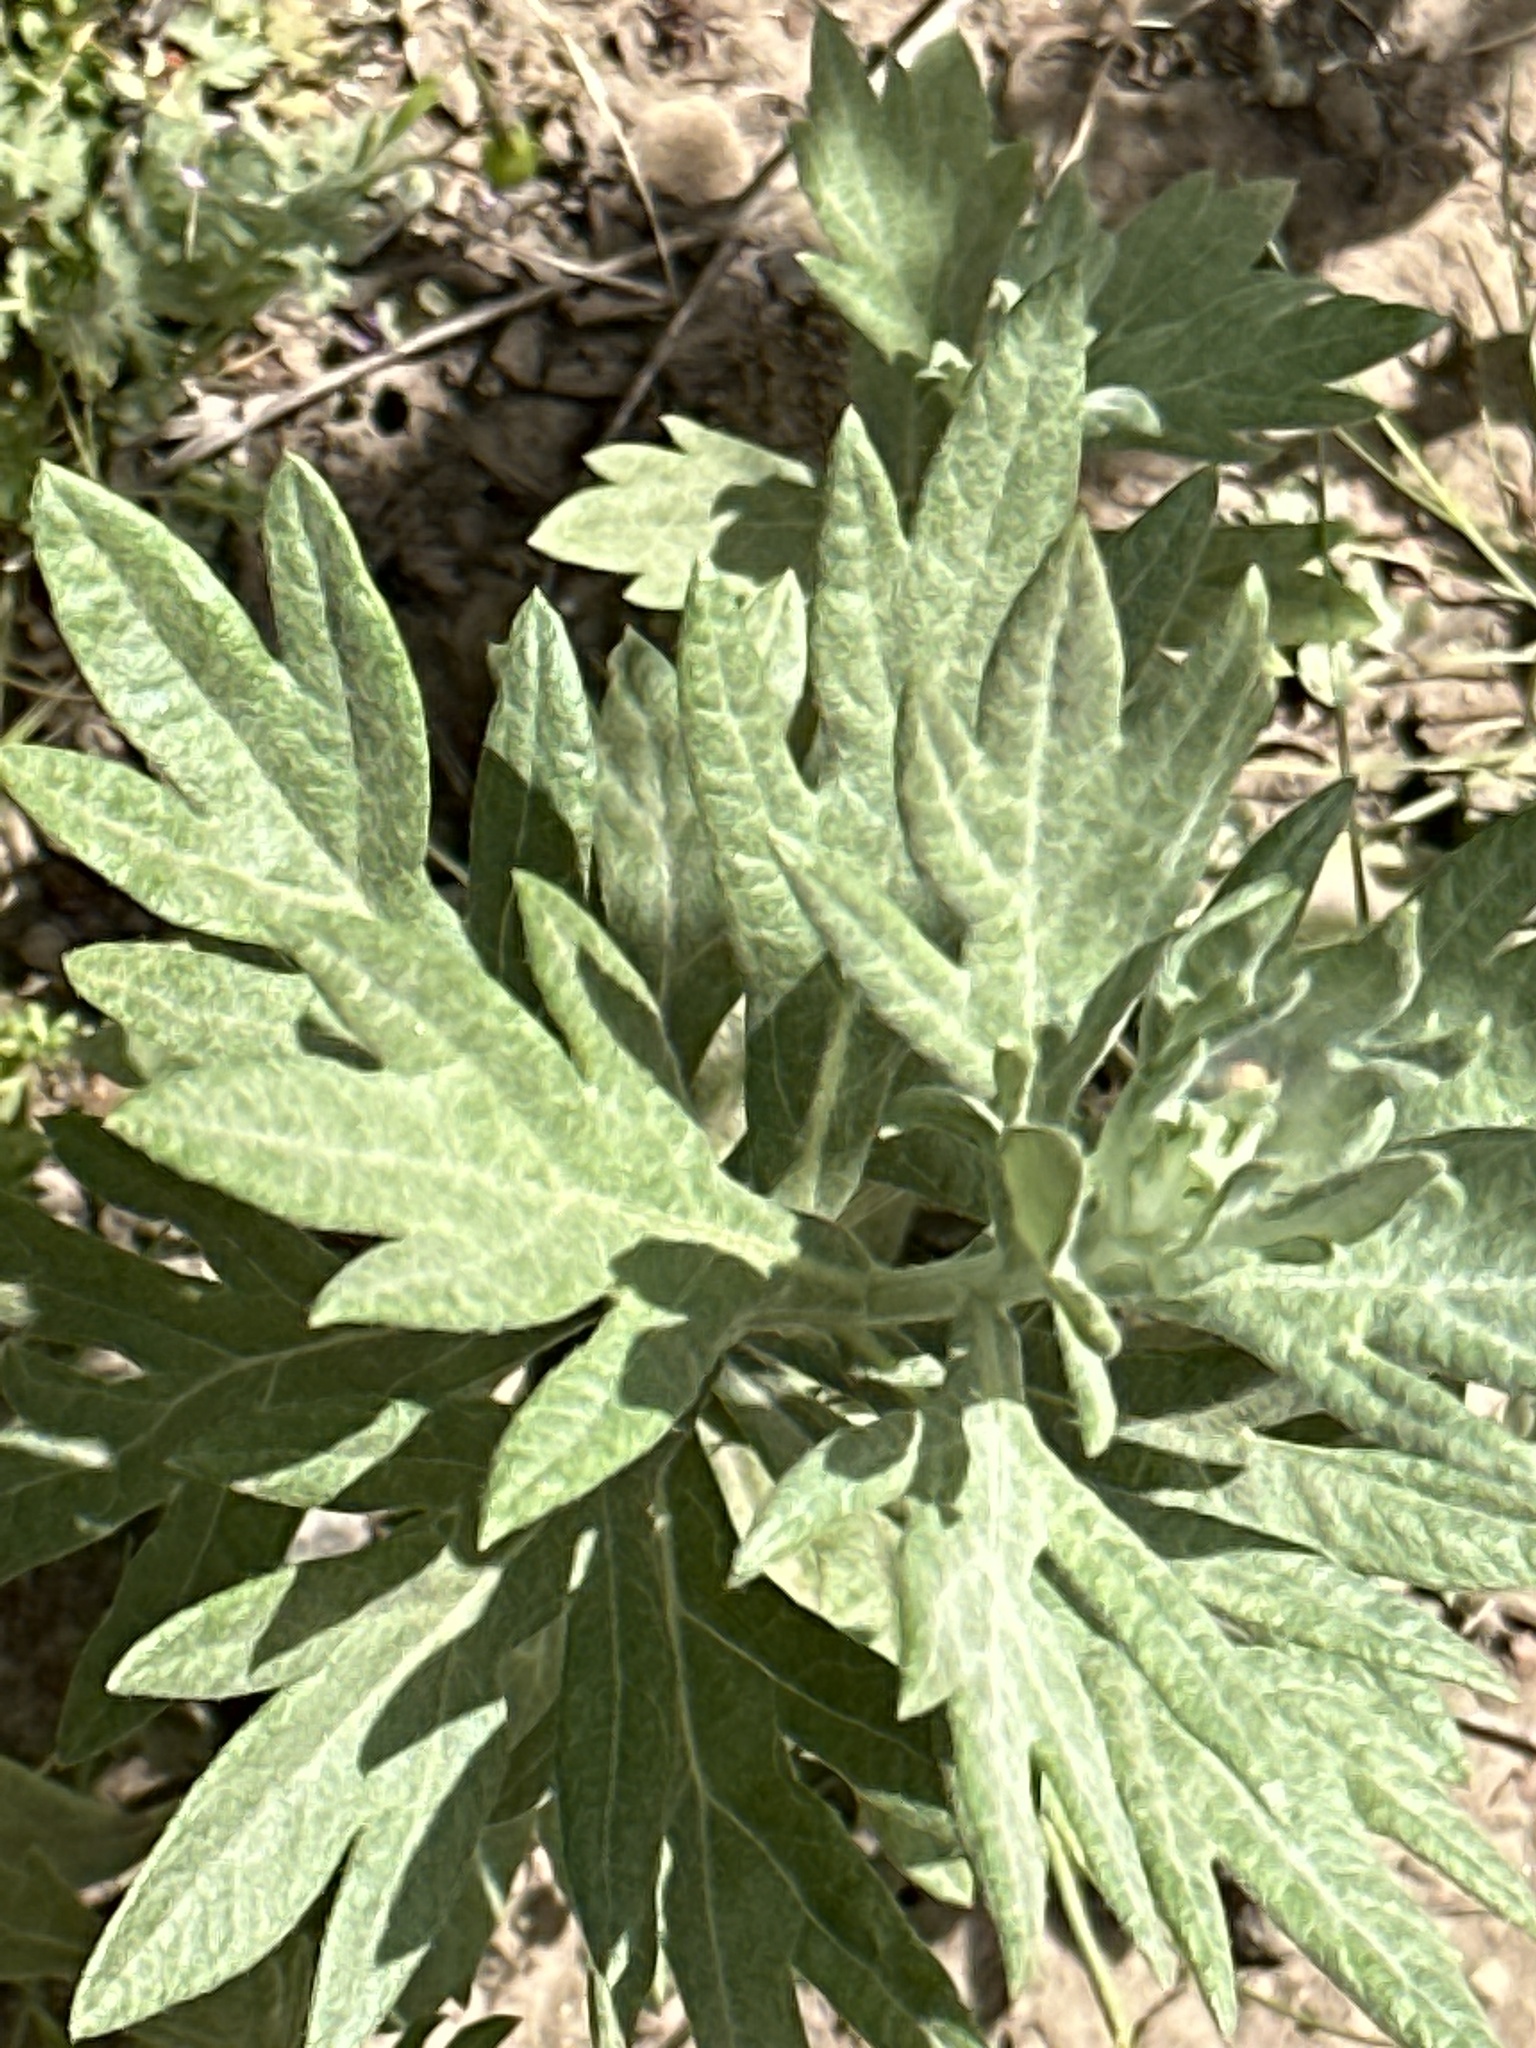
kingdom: Plantae
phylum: Tracheophyta
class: Magnoliopsida
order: Asterales
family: Asteraceae
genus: Artemisia
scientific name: Artemisia douglasiana
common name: Northwest mugwort
